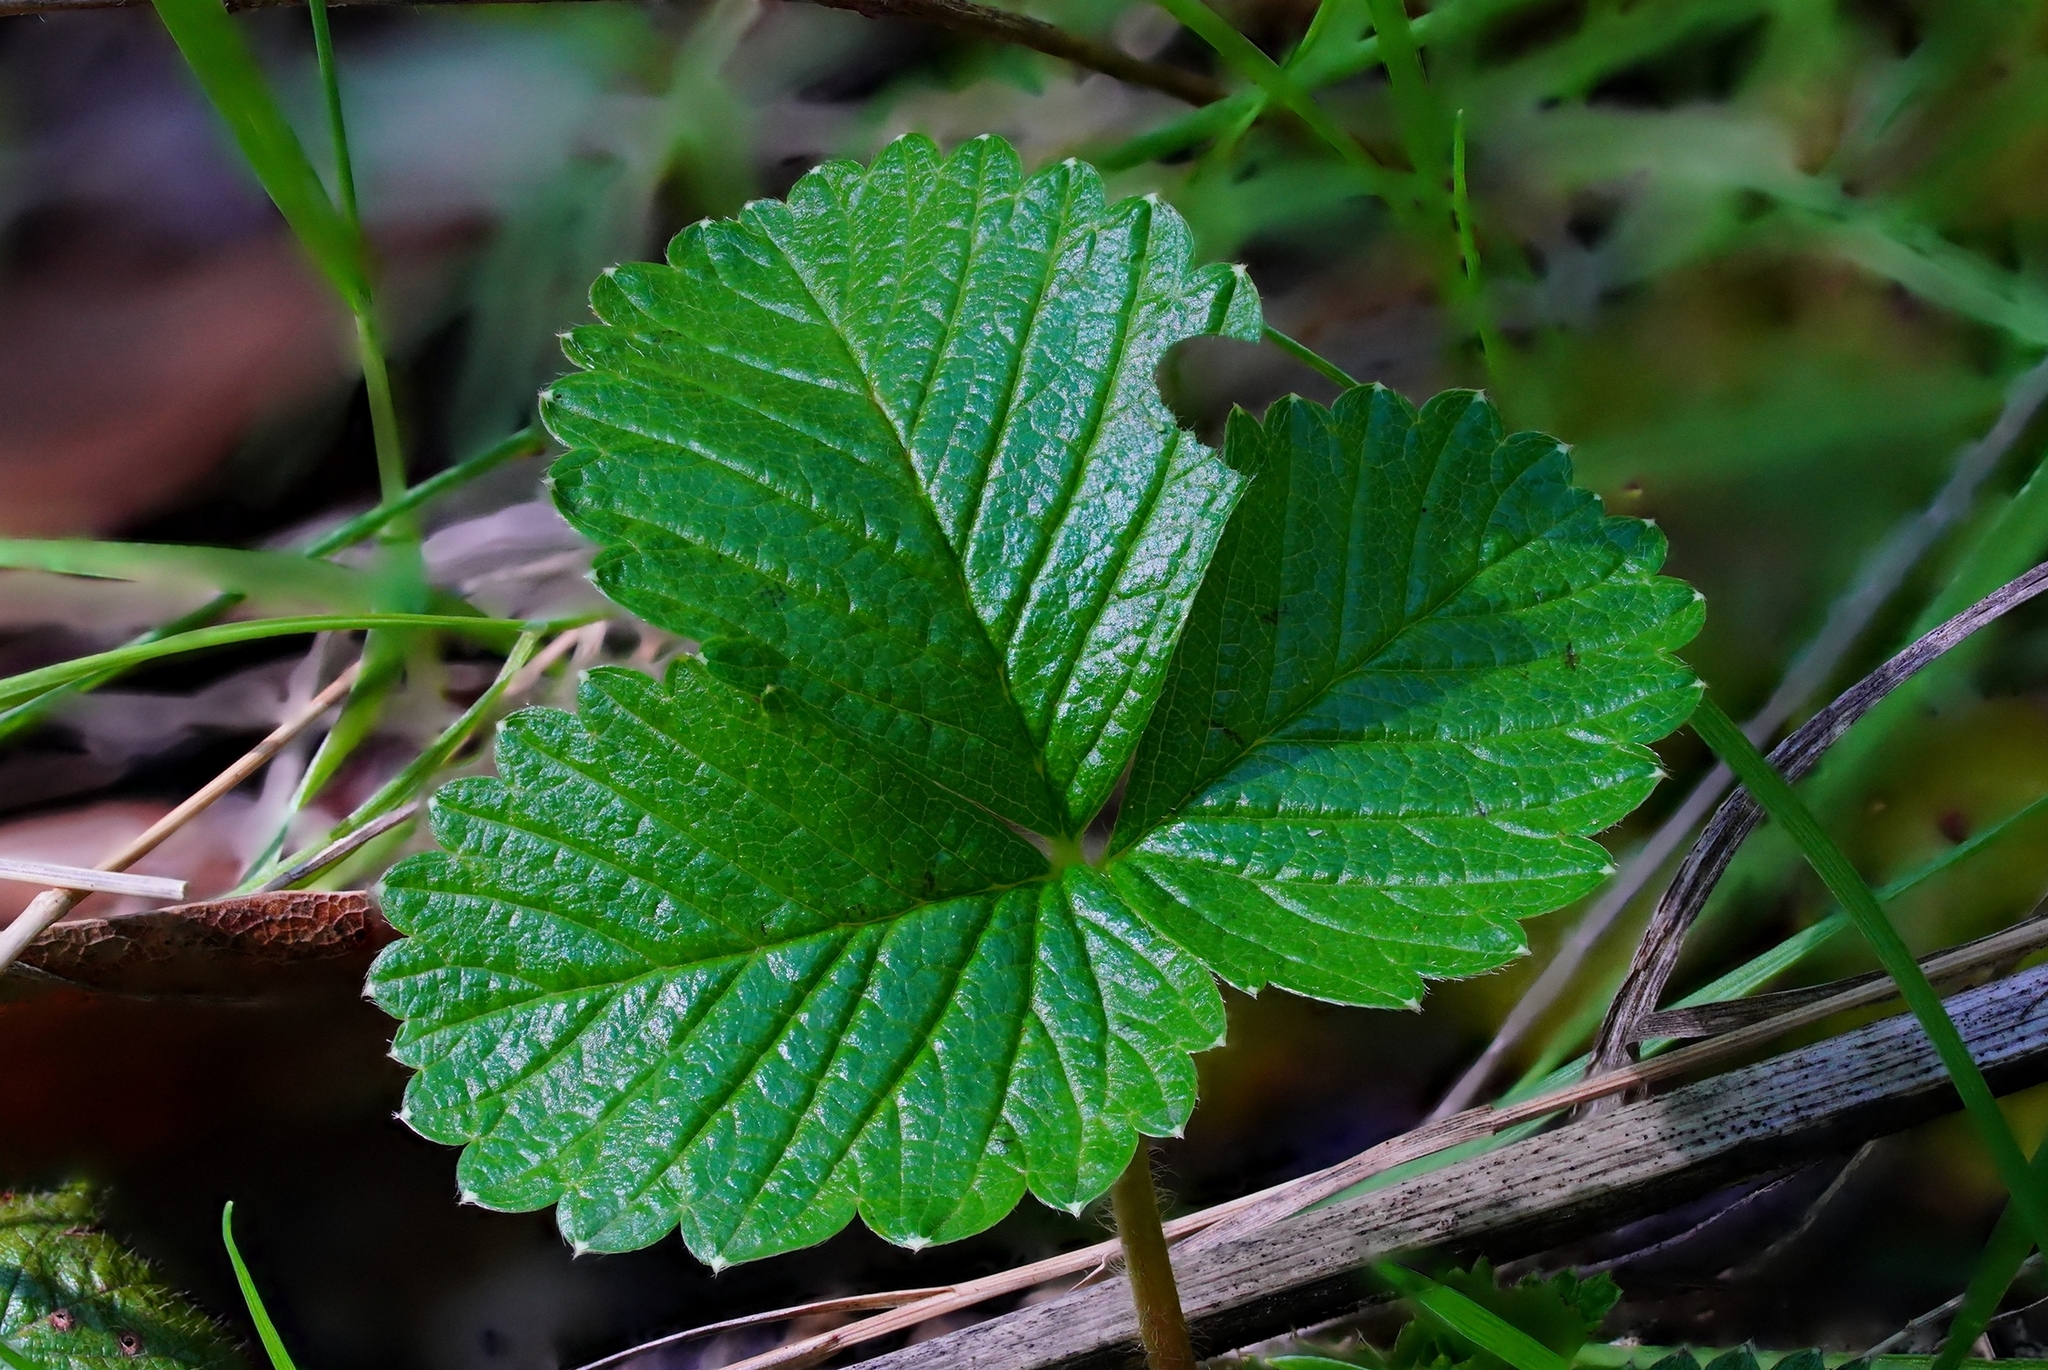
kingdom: Plantae
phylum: Tracheophyta
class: Magnoliopsida
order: Rosales
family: Rosaceae
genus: Fragaria
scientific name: Fragaria vesca
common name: Wild strawberry
